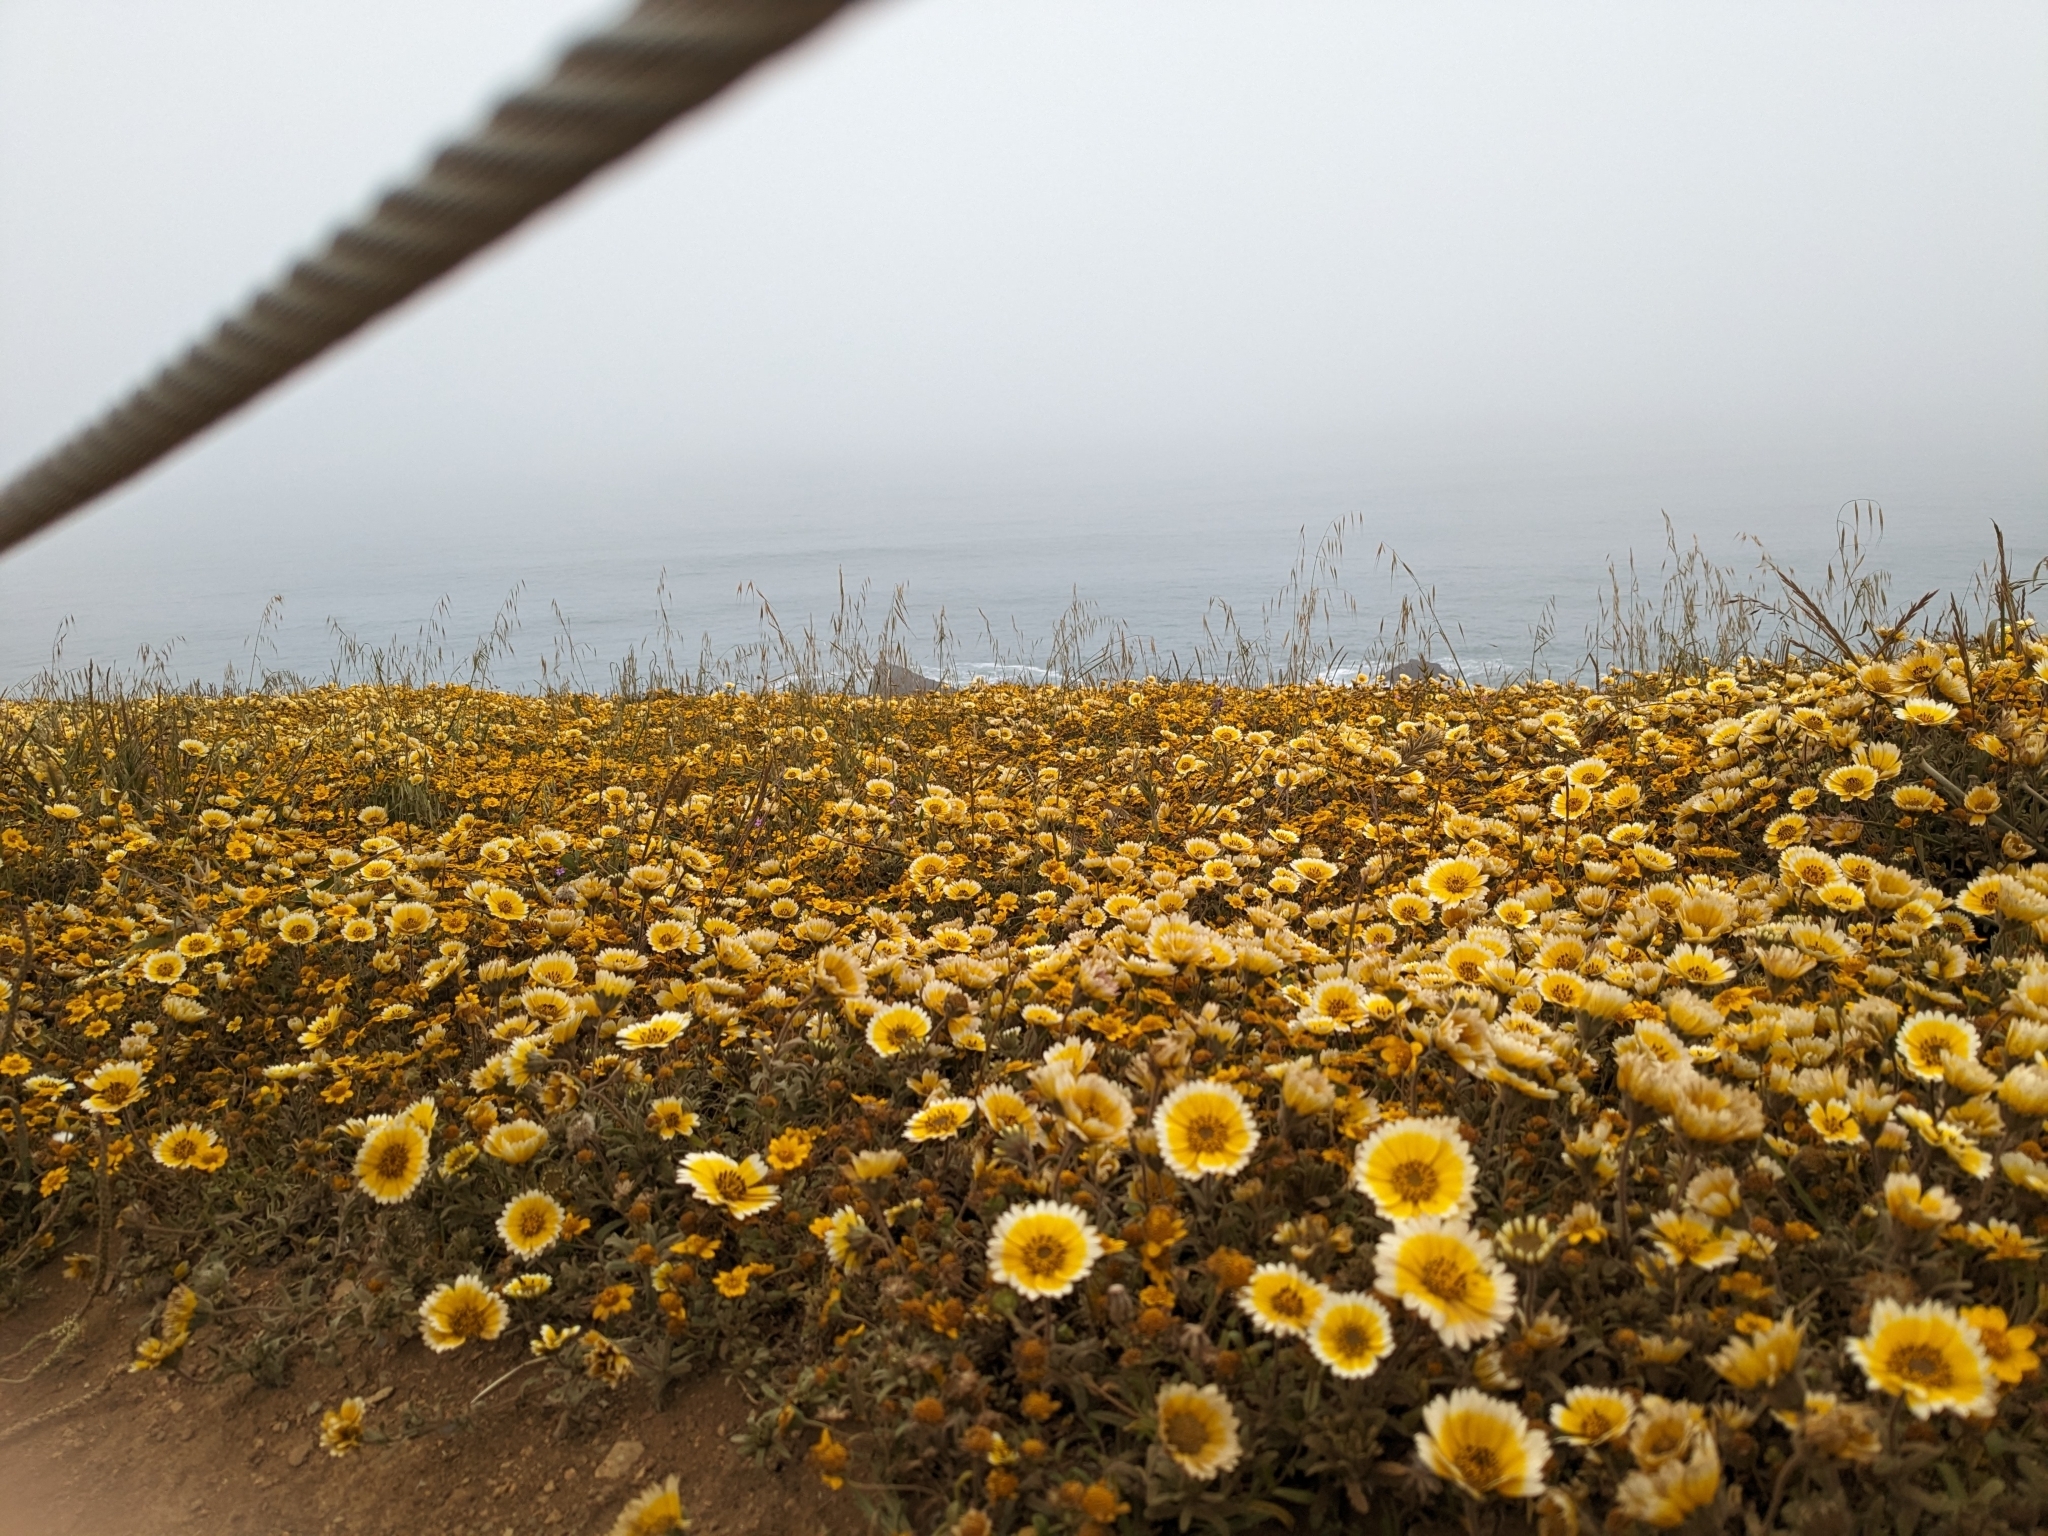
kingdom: Plantae
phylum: Tracheophyta
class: Magnoliopsida
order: Asterales
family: Asteraceae
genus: Layia
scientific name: Layia platyglossa
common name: Tidy-tips
